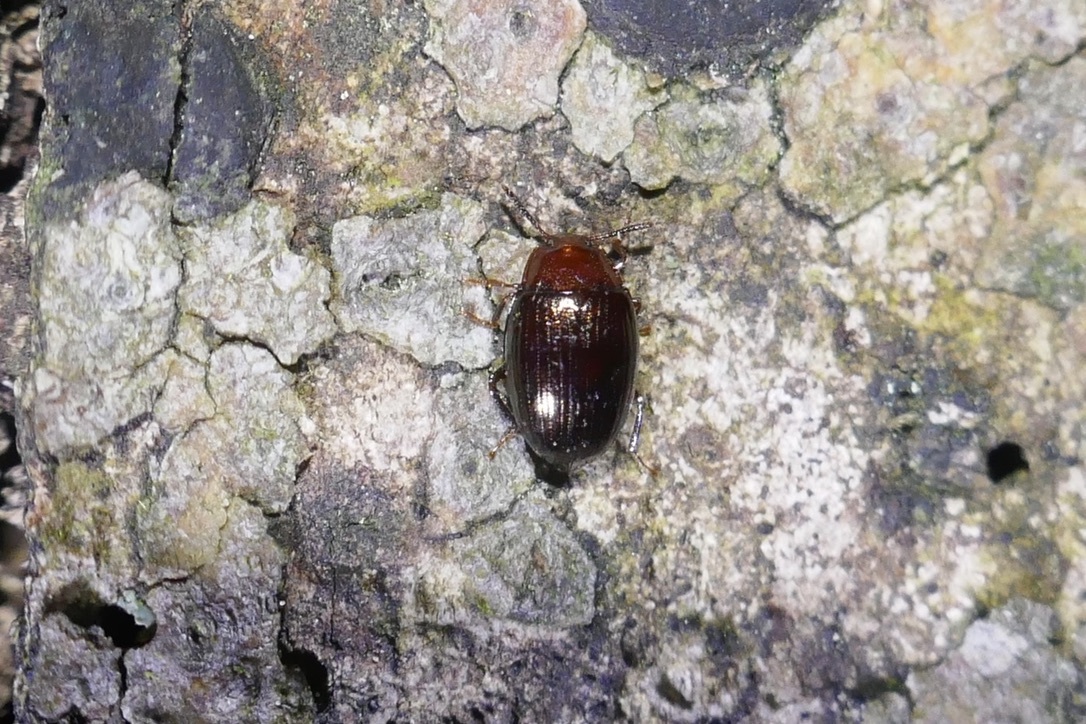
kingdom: Animalia
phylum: Arthropoda
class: Insecta
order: Coleoptera
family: Tenebrionidae
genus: Blapstinus
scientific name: Blapstinus metallicus
